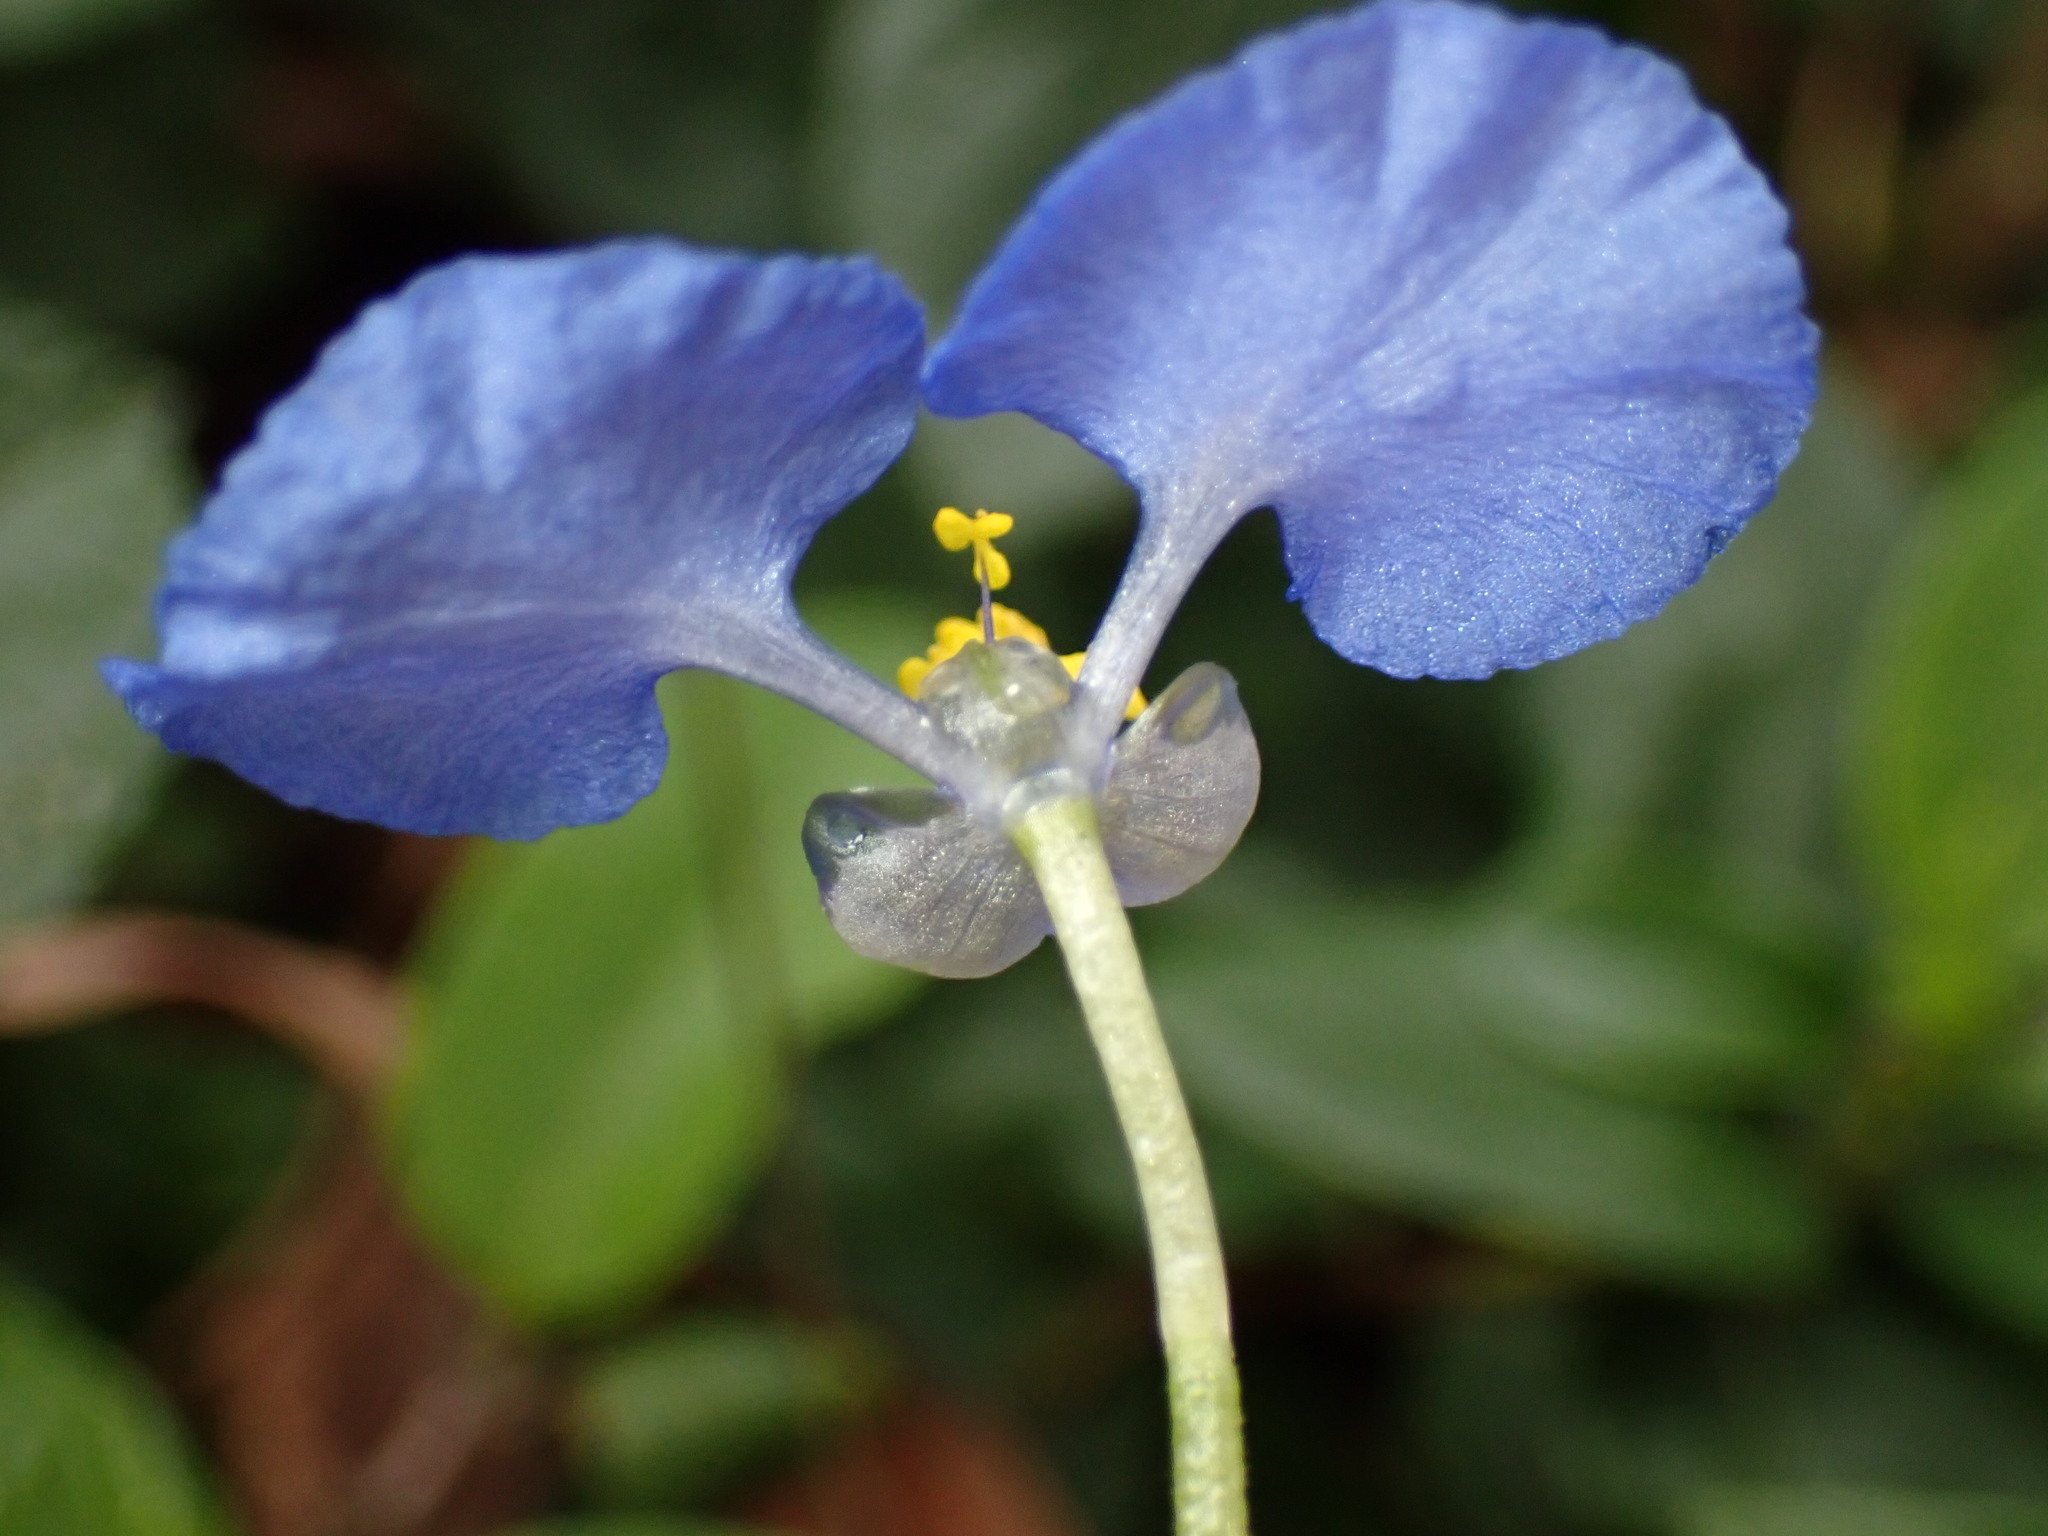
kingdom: Plantae
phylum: Tracheophyta
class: Liliopsida
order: Commelinales
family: Commelinaceae
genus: Commelina
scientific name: Commelina benghalensis
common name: Jio
